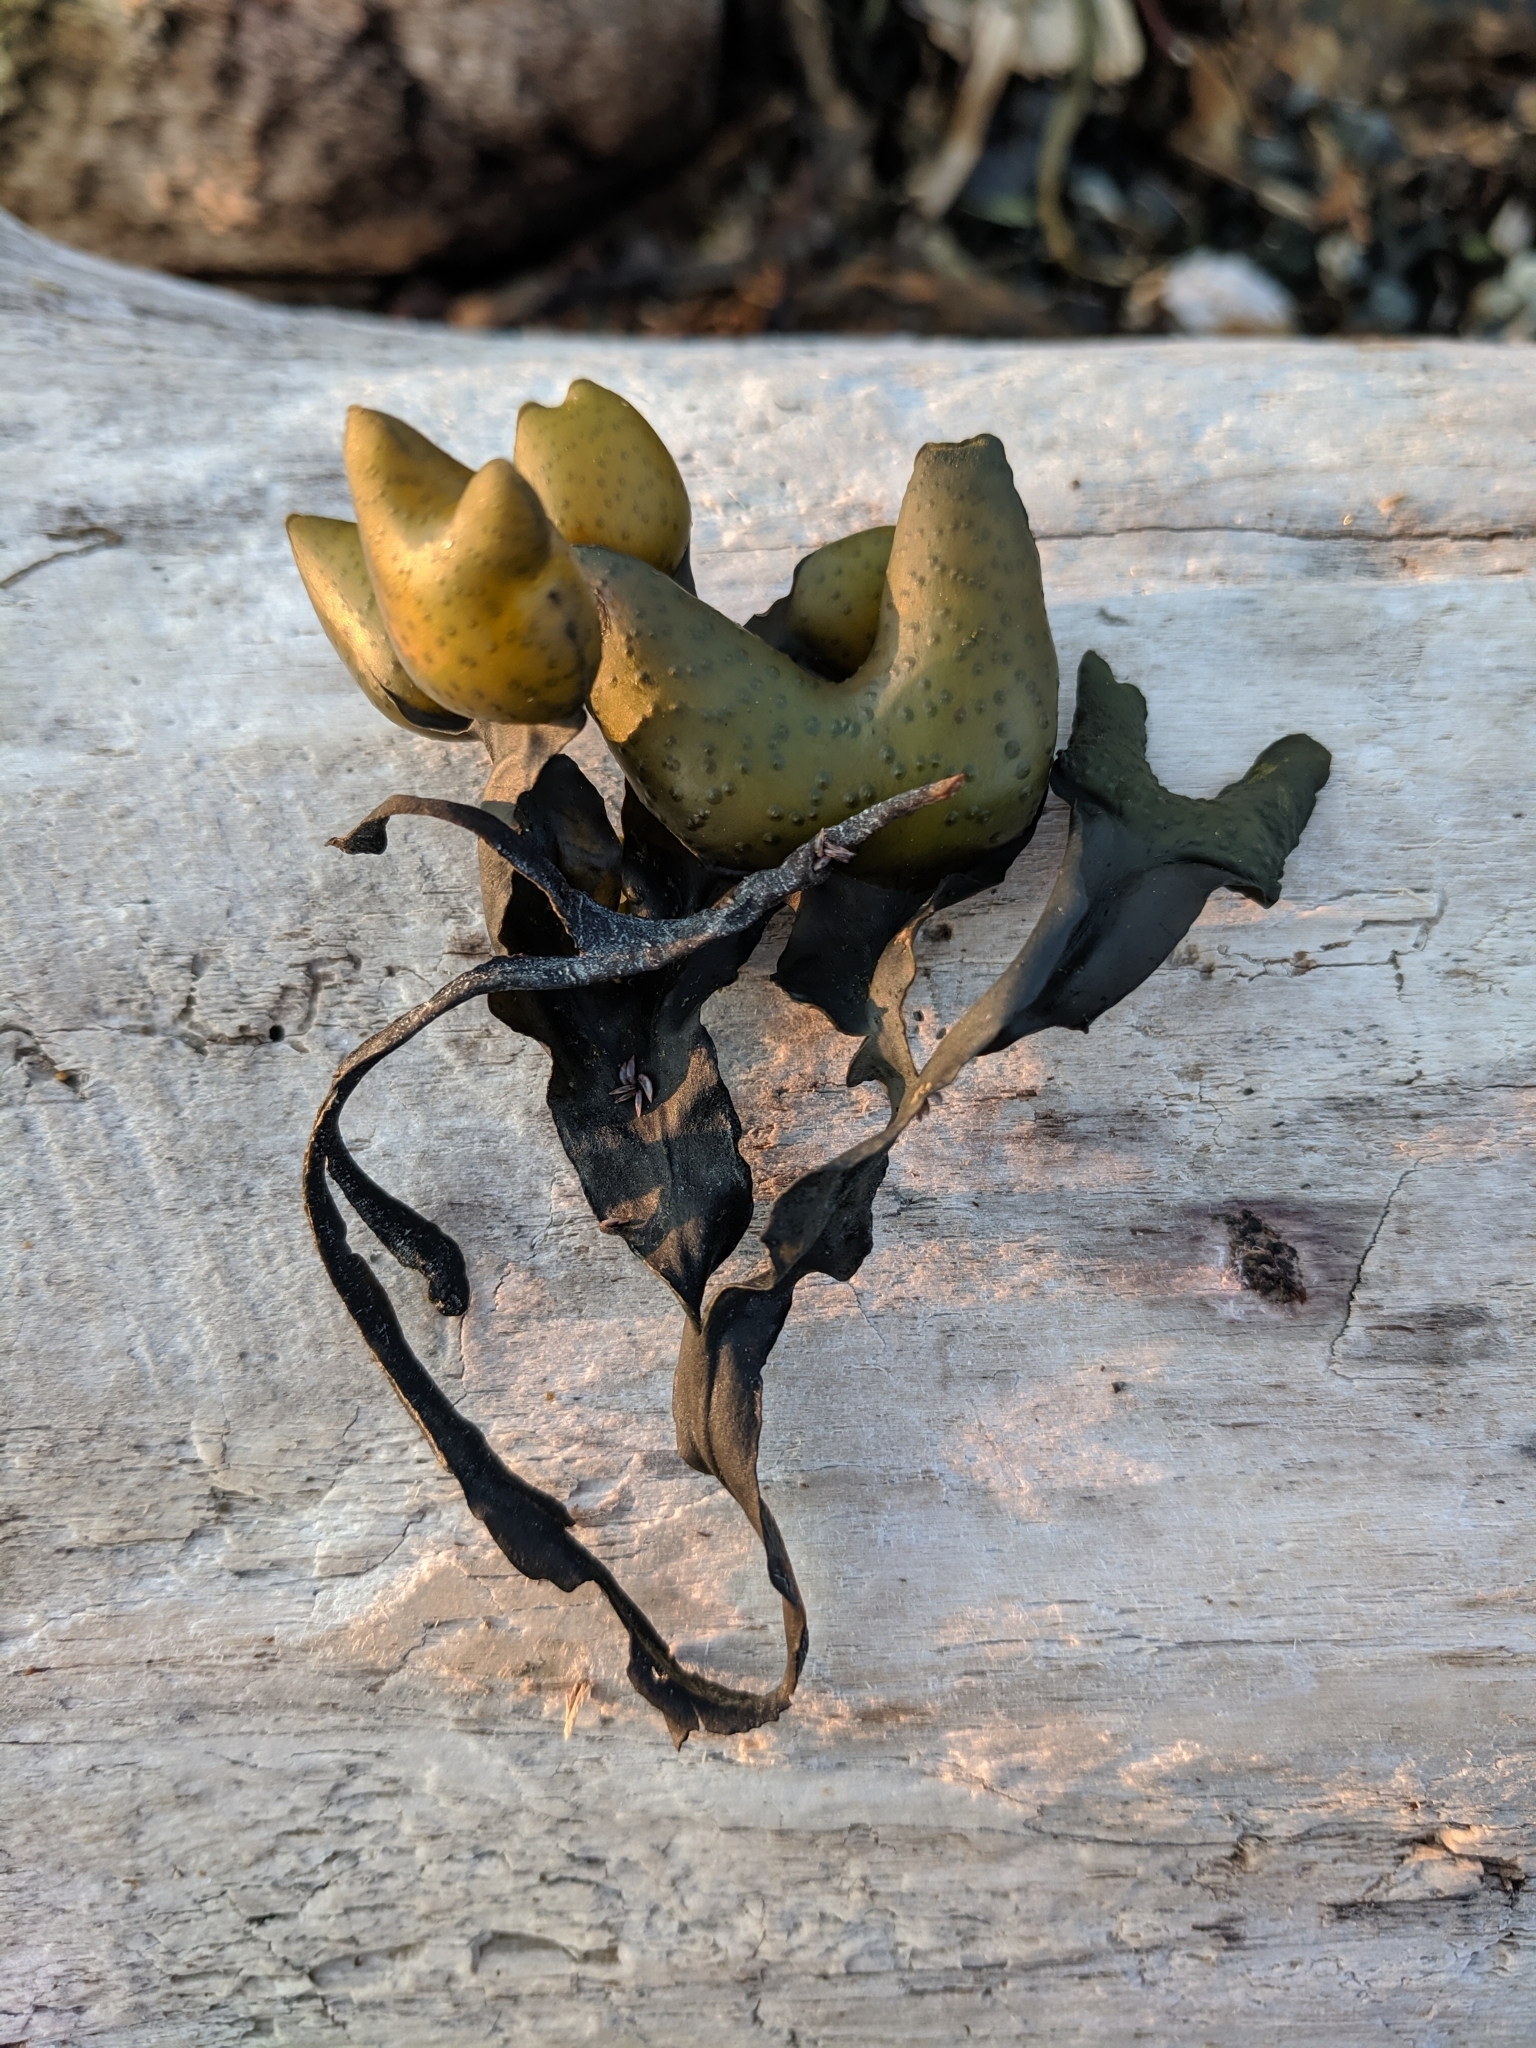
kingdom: Chromista
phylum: Ochrophyta
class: Phaeophyceae
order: Fucales
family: Fucaceae
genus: Fucus
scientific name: Fucus distichus
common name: Rockweed
